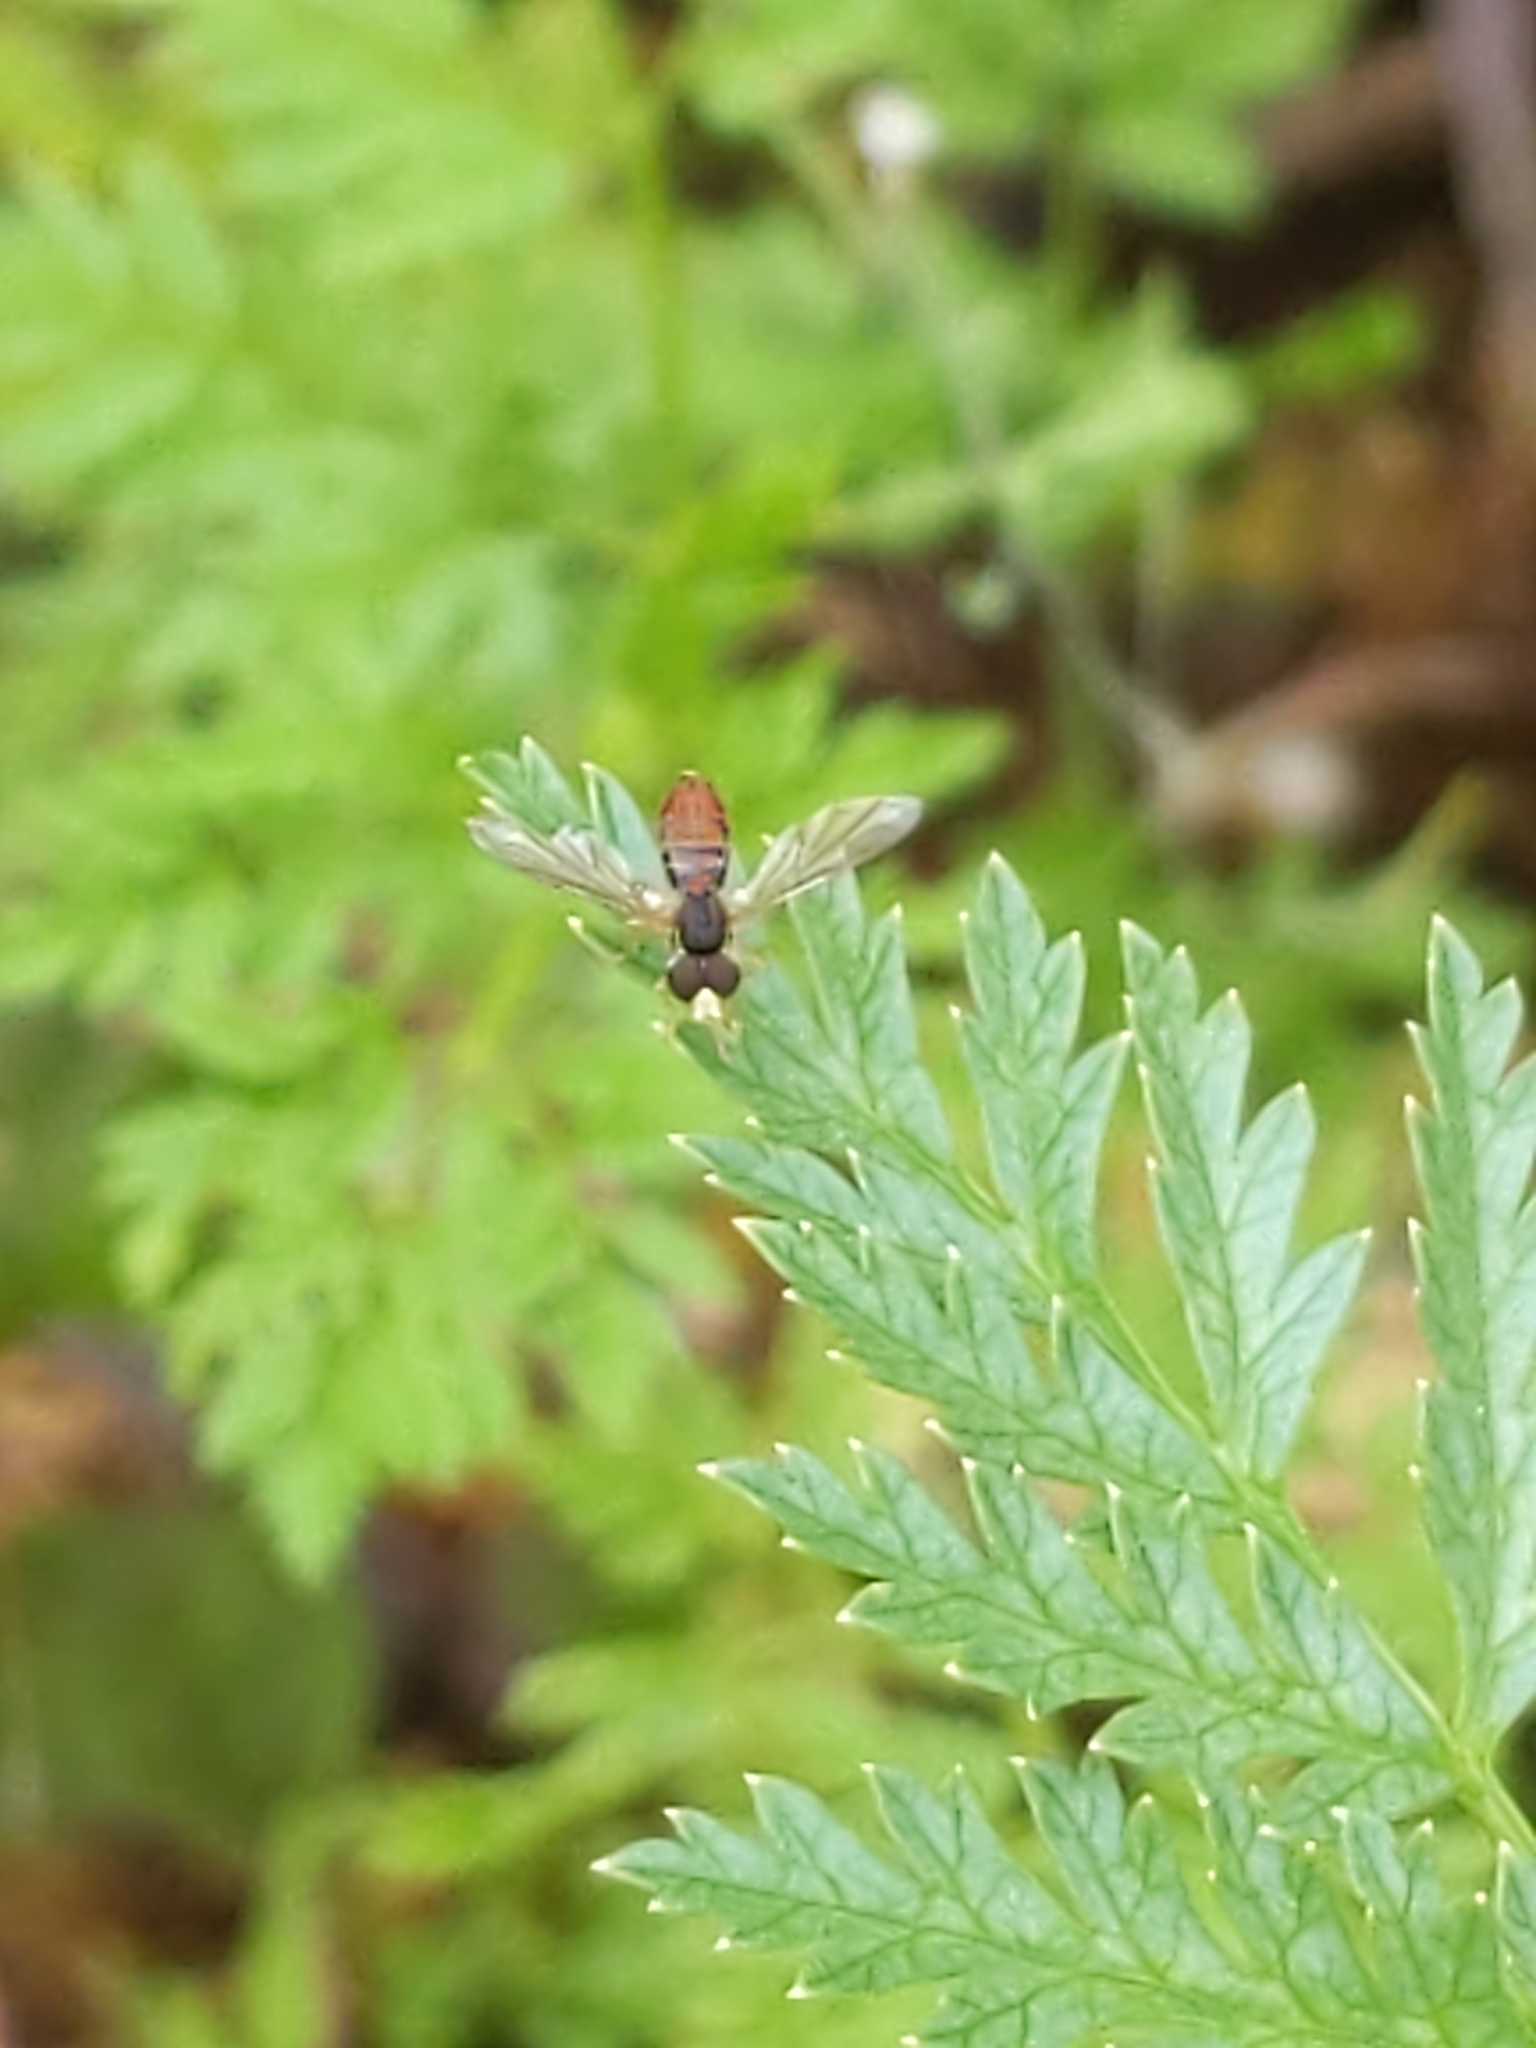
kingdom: Animalia
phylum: Arthropoda
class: Insecta
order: Diptera
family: Syrphidae
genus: Toxomerus
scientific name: Toxomerus
